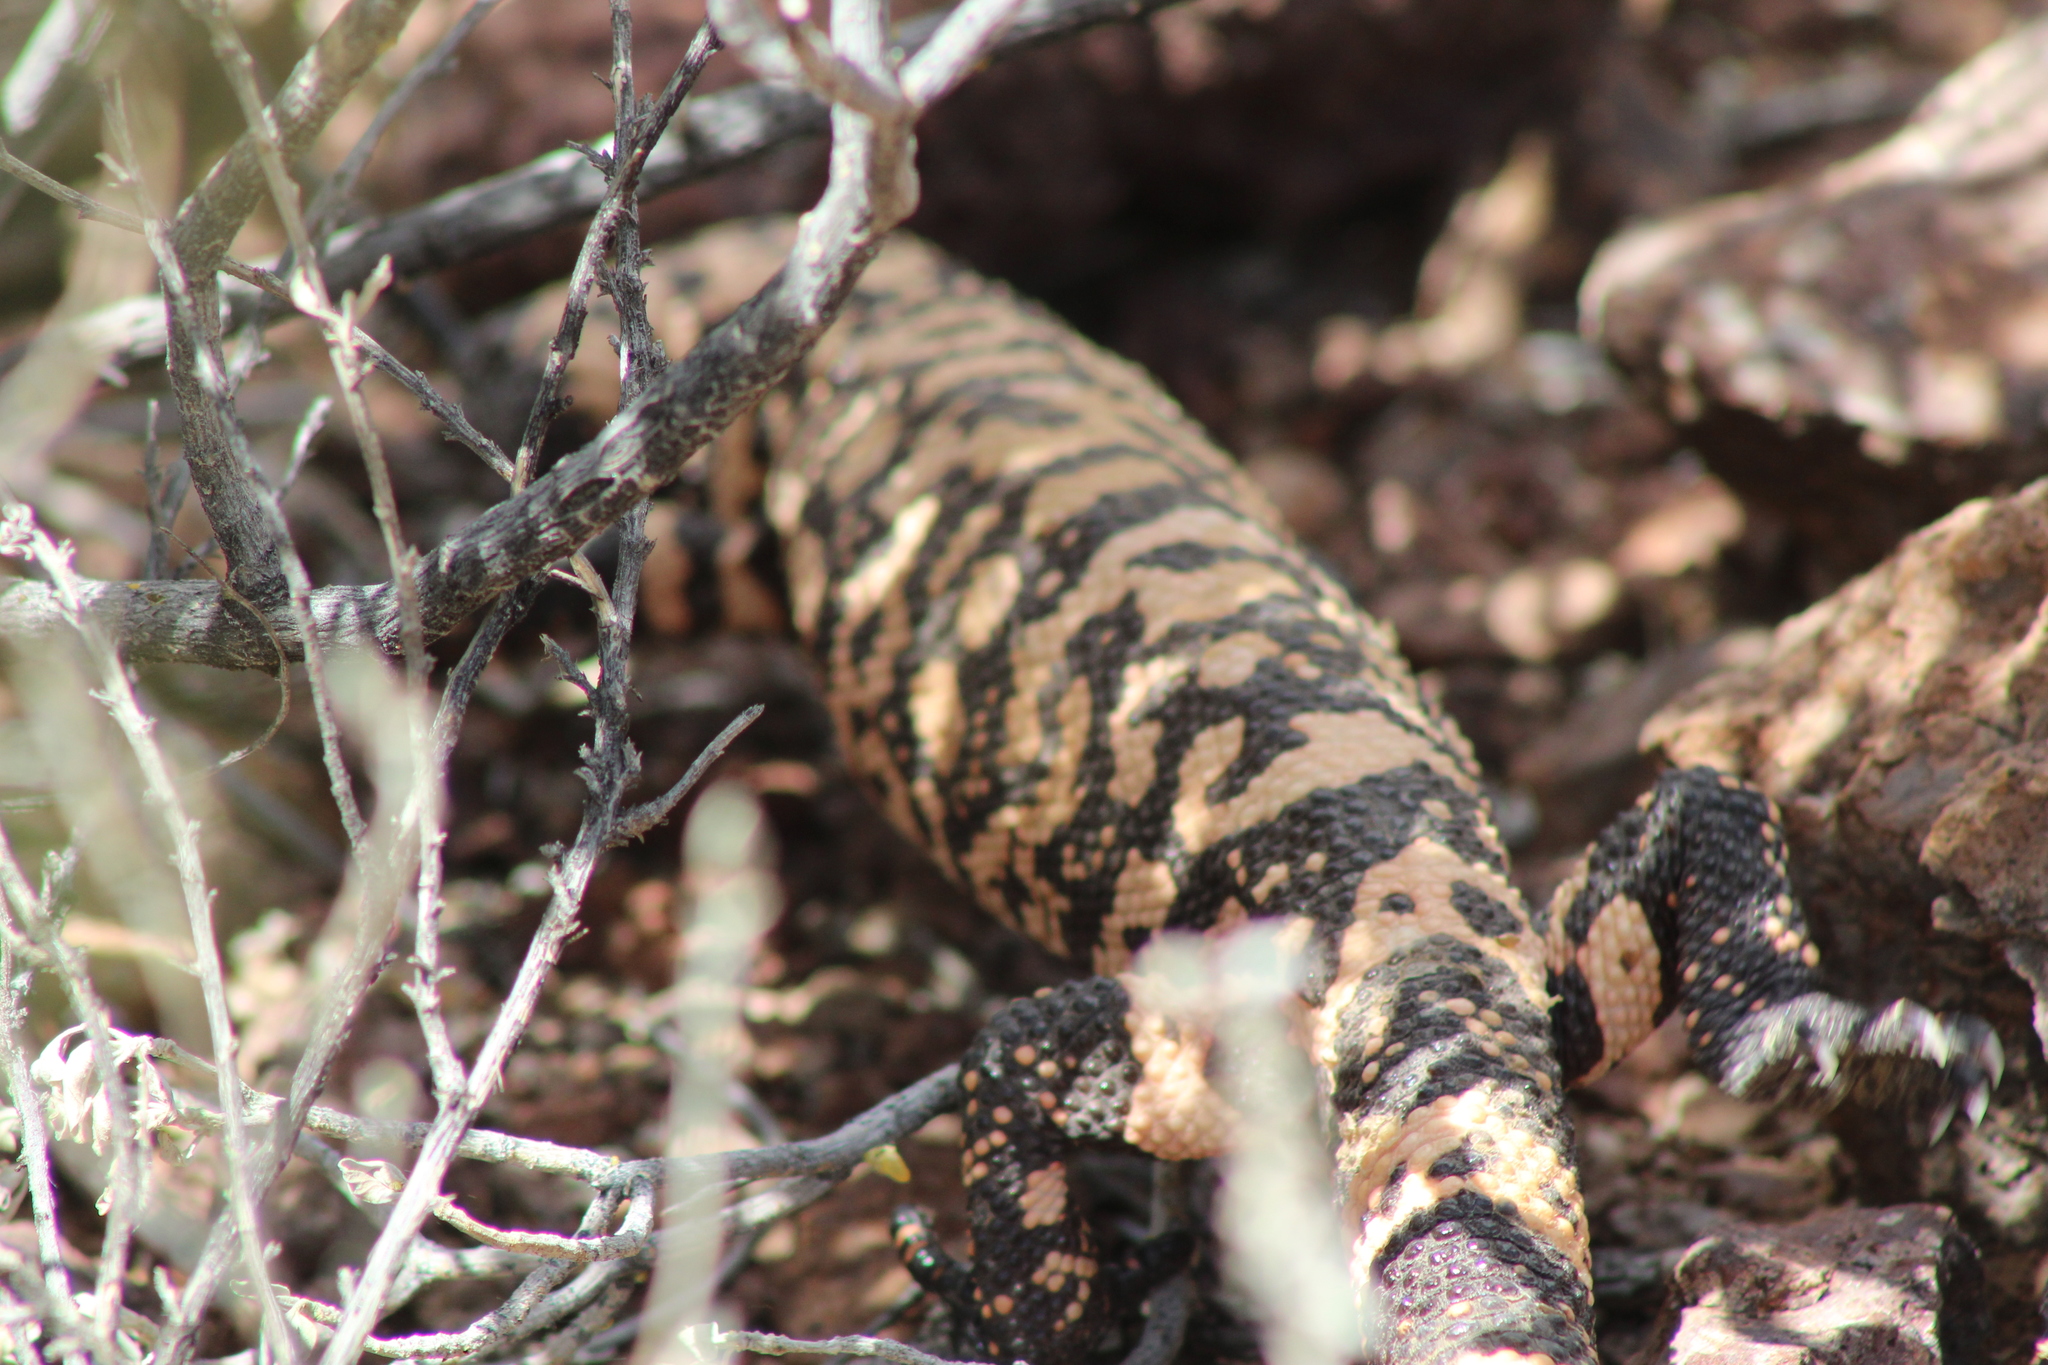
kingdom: Animalia
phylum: Chordata
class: Squamata
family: Helodermatidae
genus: Heloderma
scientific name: Heloderma suspectum
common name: Gila monster
